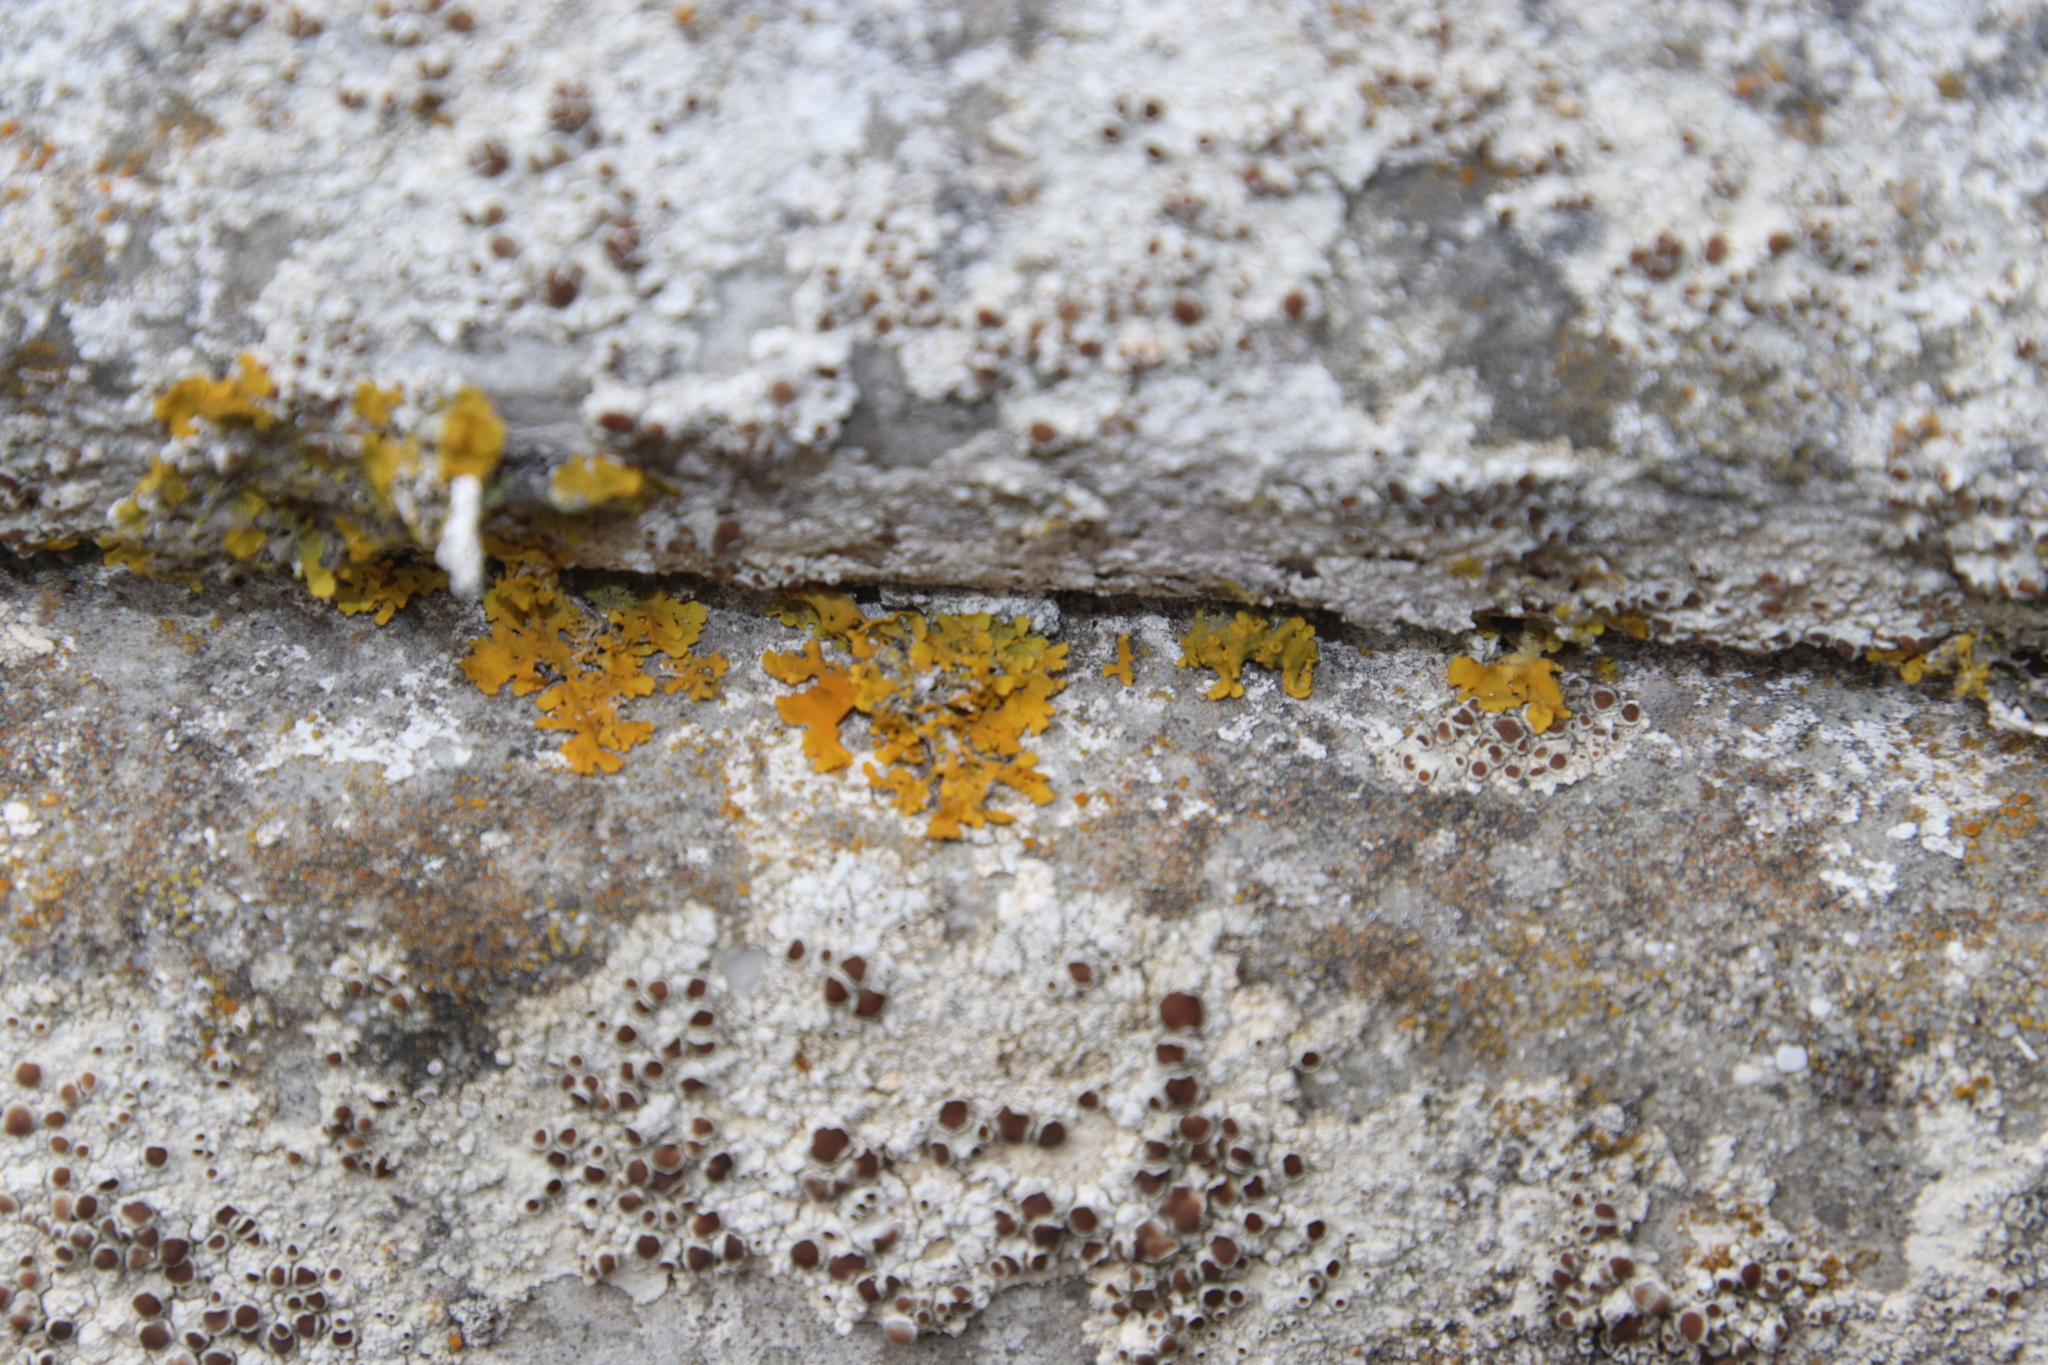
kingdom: Fungi
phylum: Ascomycota
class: Lecanoromycetes
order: Teloschistales
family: Teloschistaceae
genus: Xanthoria
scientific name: Xanthoria parietina
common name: Common orange lichen
